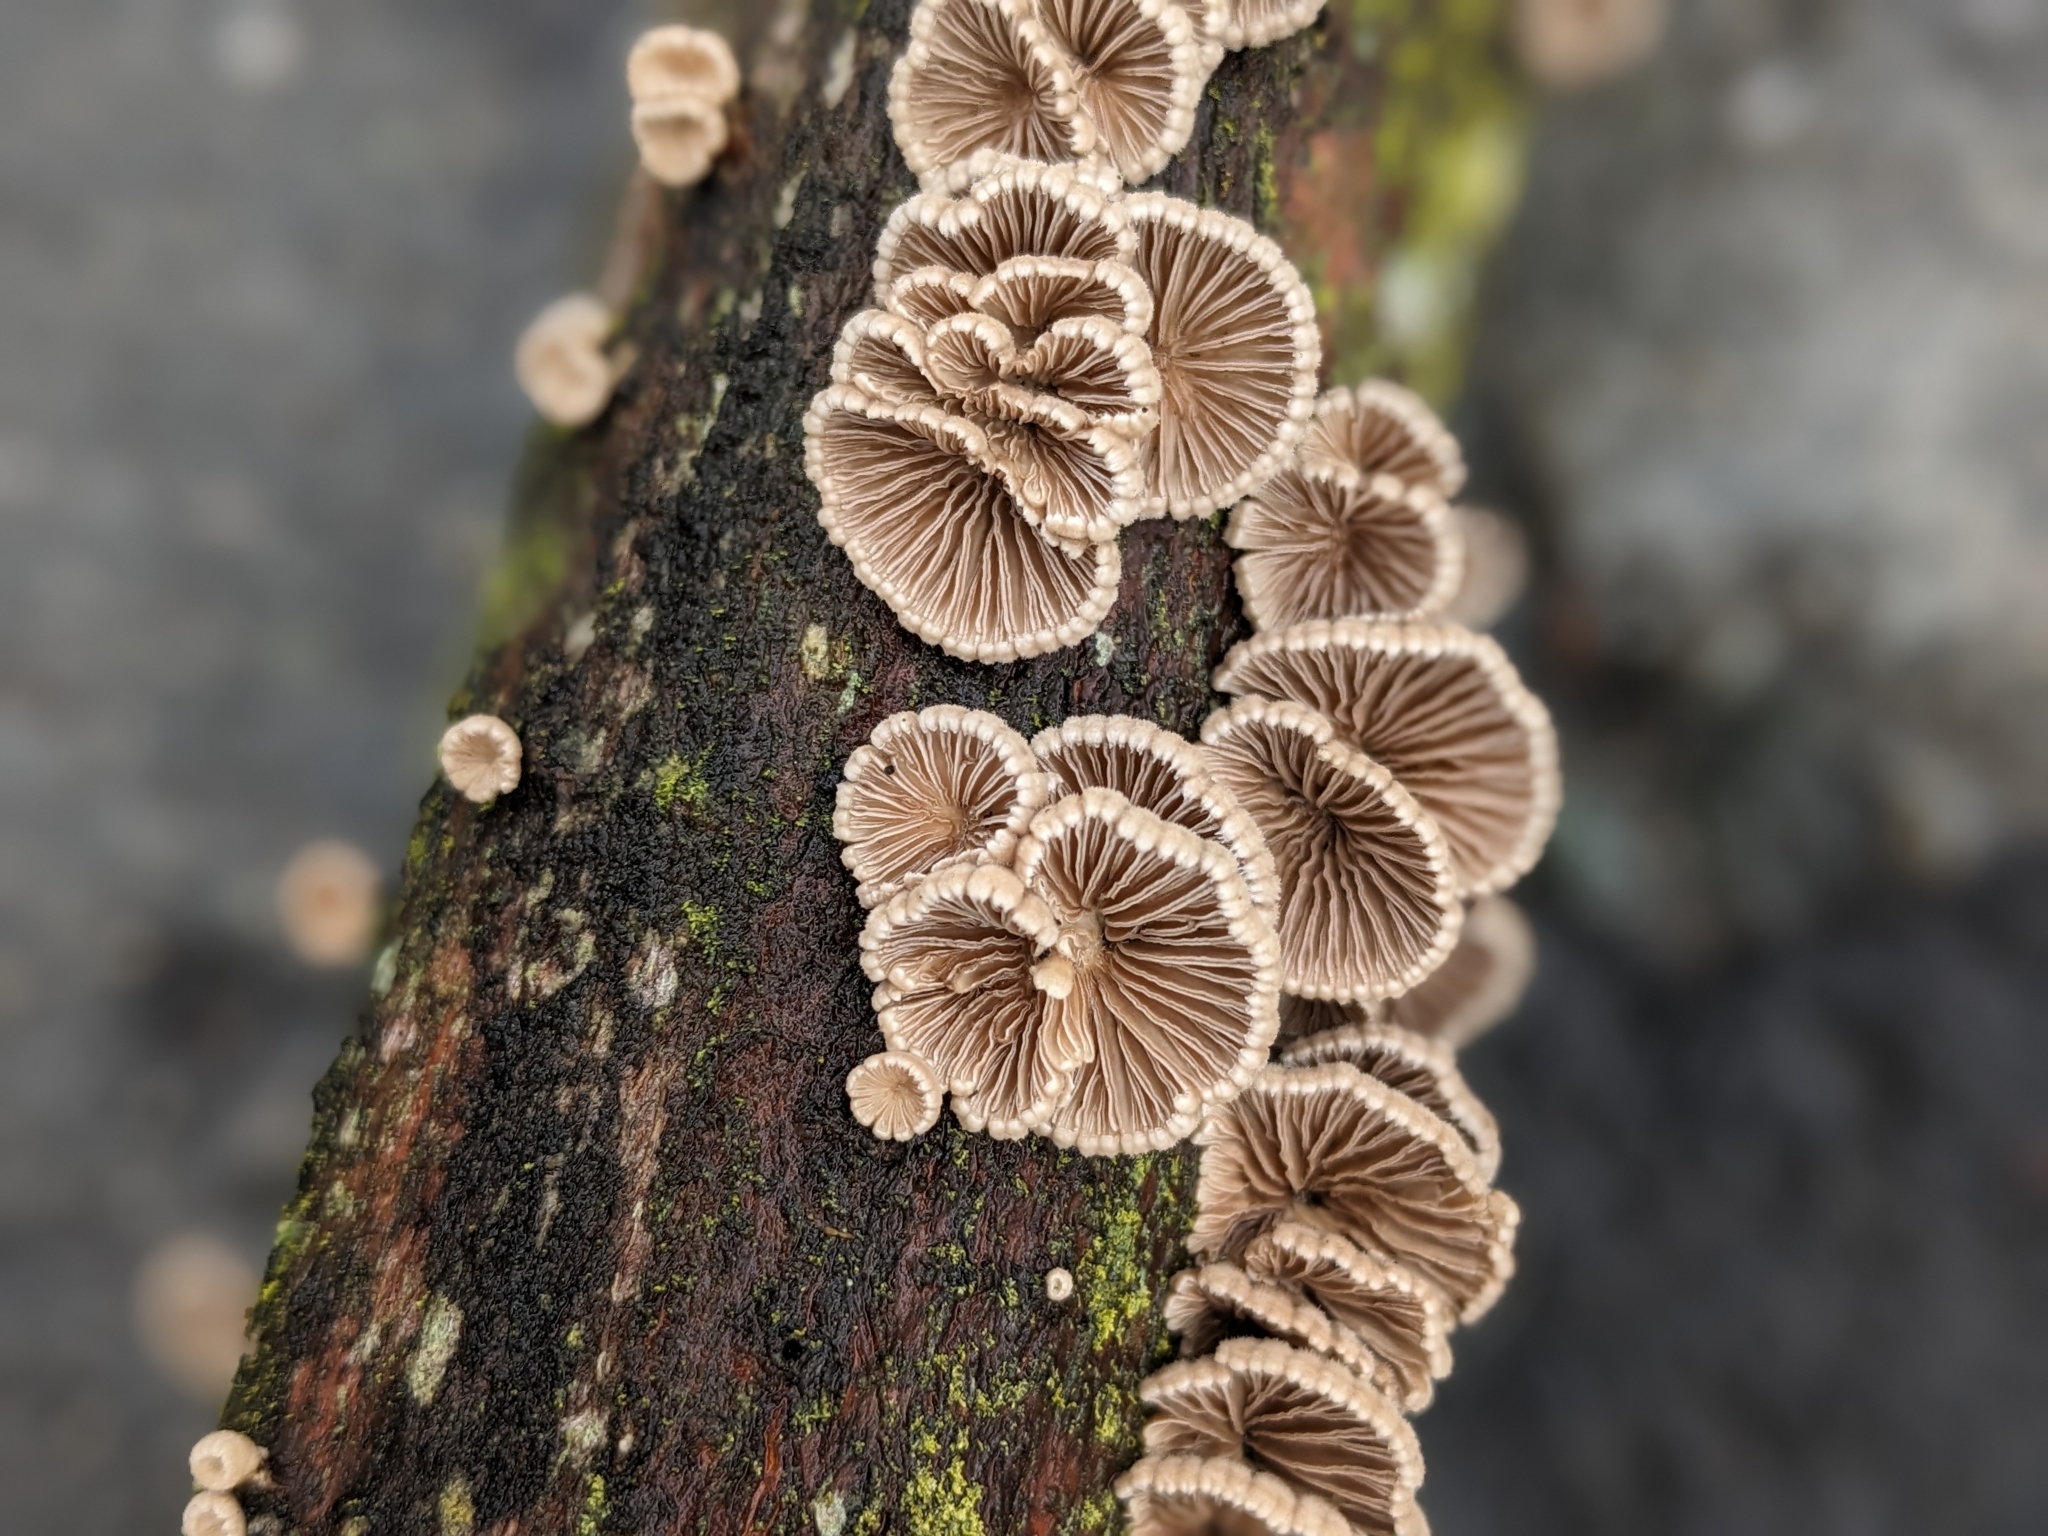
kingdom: Fungi
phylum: Basidiomycota
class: Agaricomycetes
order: Agaricales
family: Schizophyllaceae
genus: Schizophyllum
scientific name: Schizophyllum commune
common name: Common porecrust
